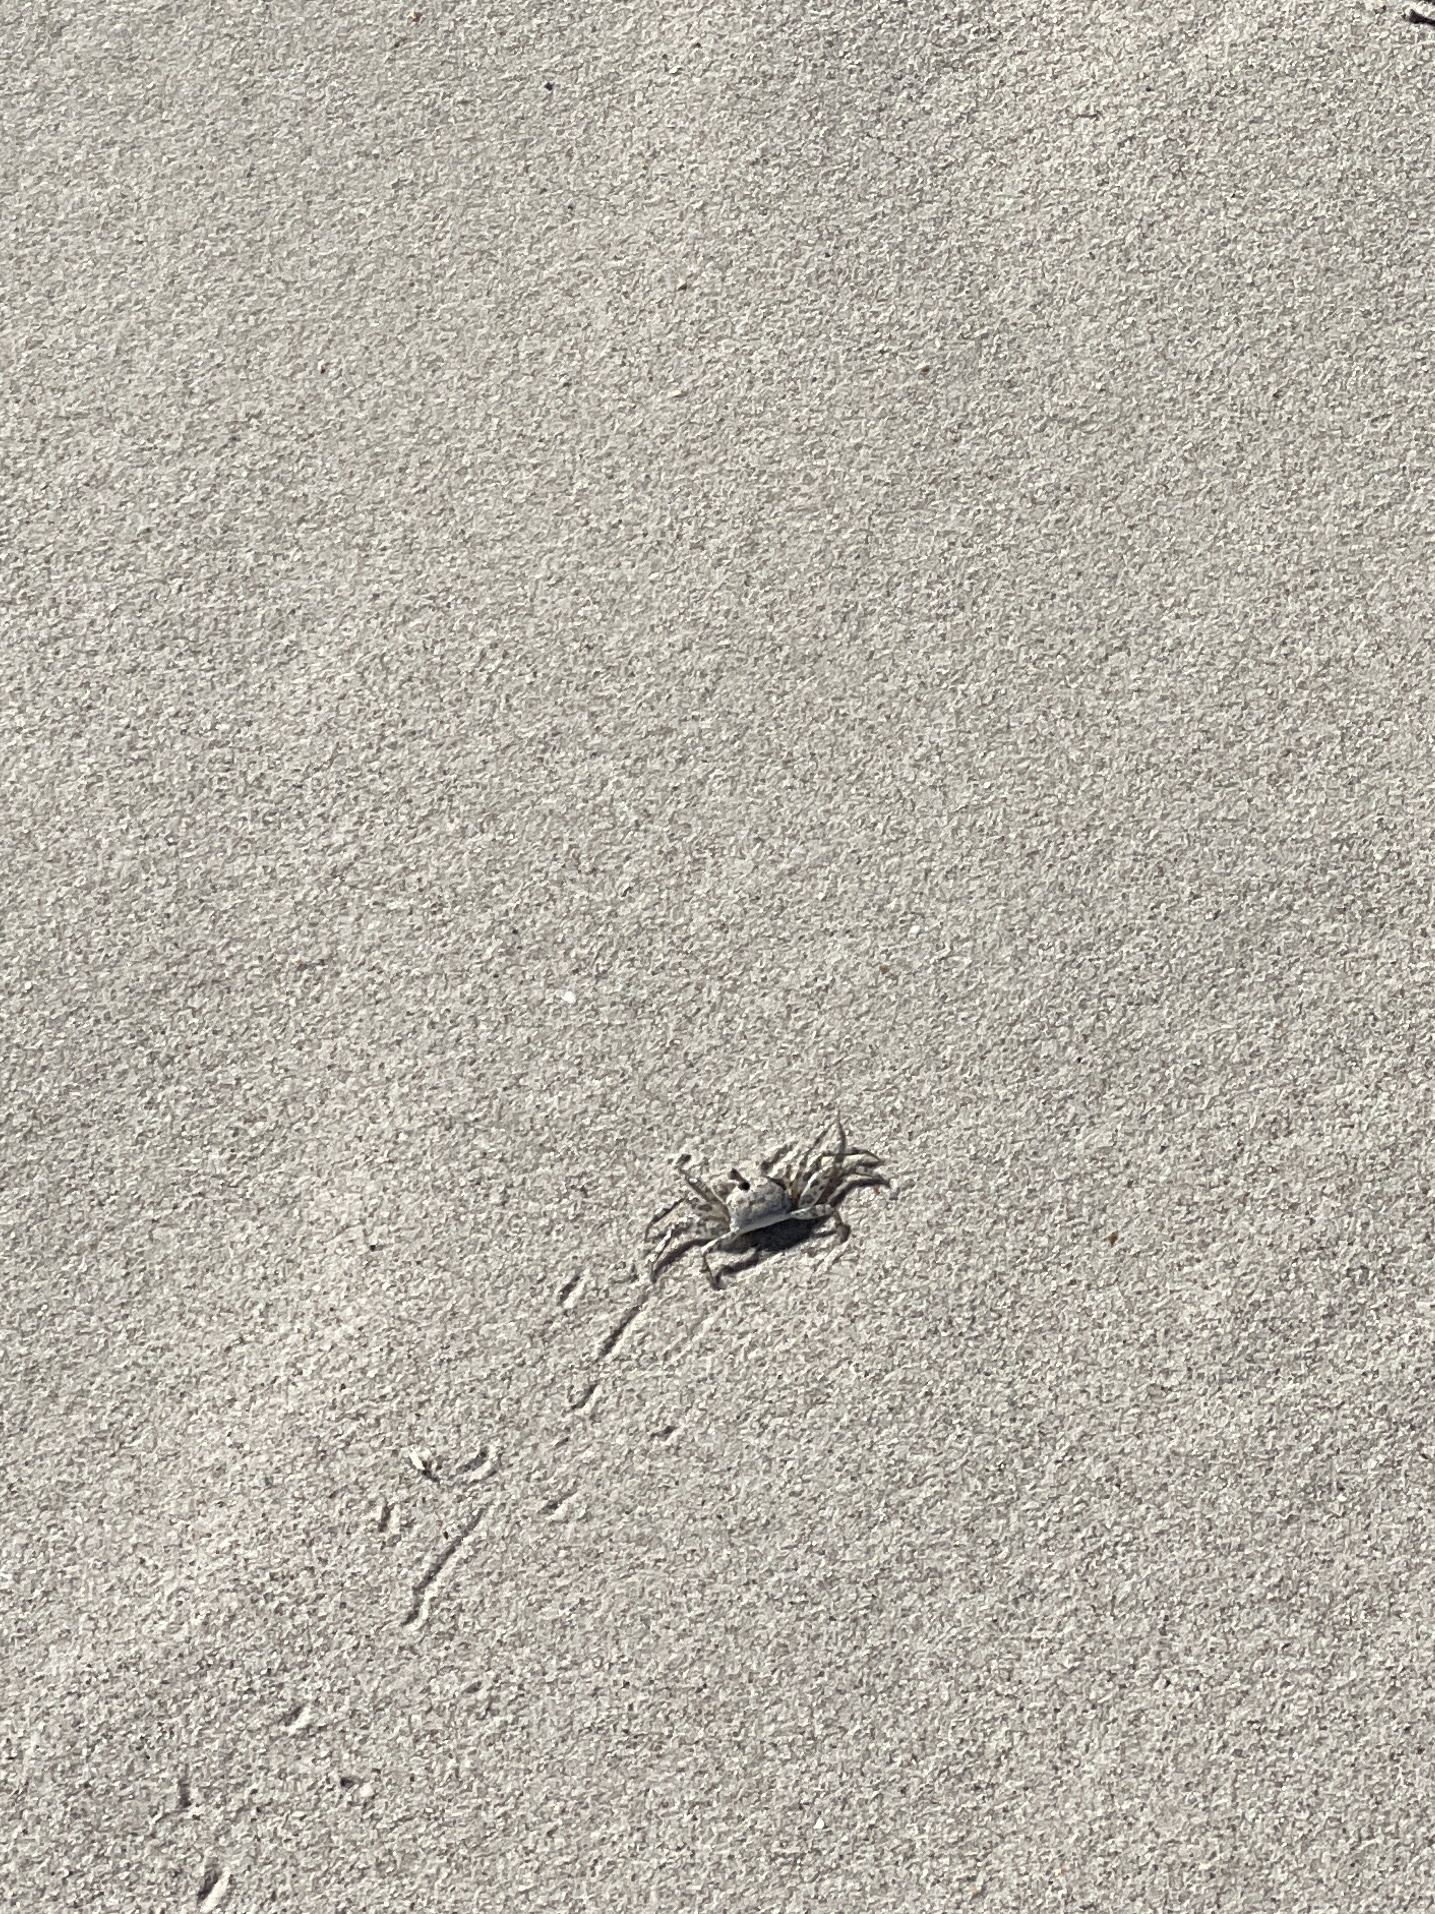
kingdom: Animalia
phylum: Arthropoda
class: Malacostraca
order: Decapoda
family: Ocypodidae
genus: Ocypode
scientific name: Ocypode quadrata
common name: Ghost crab
